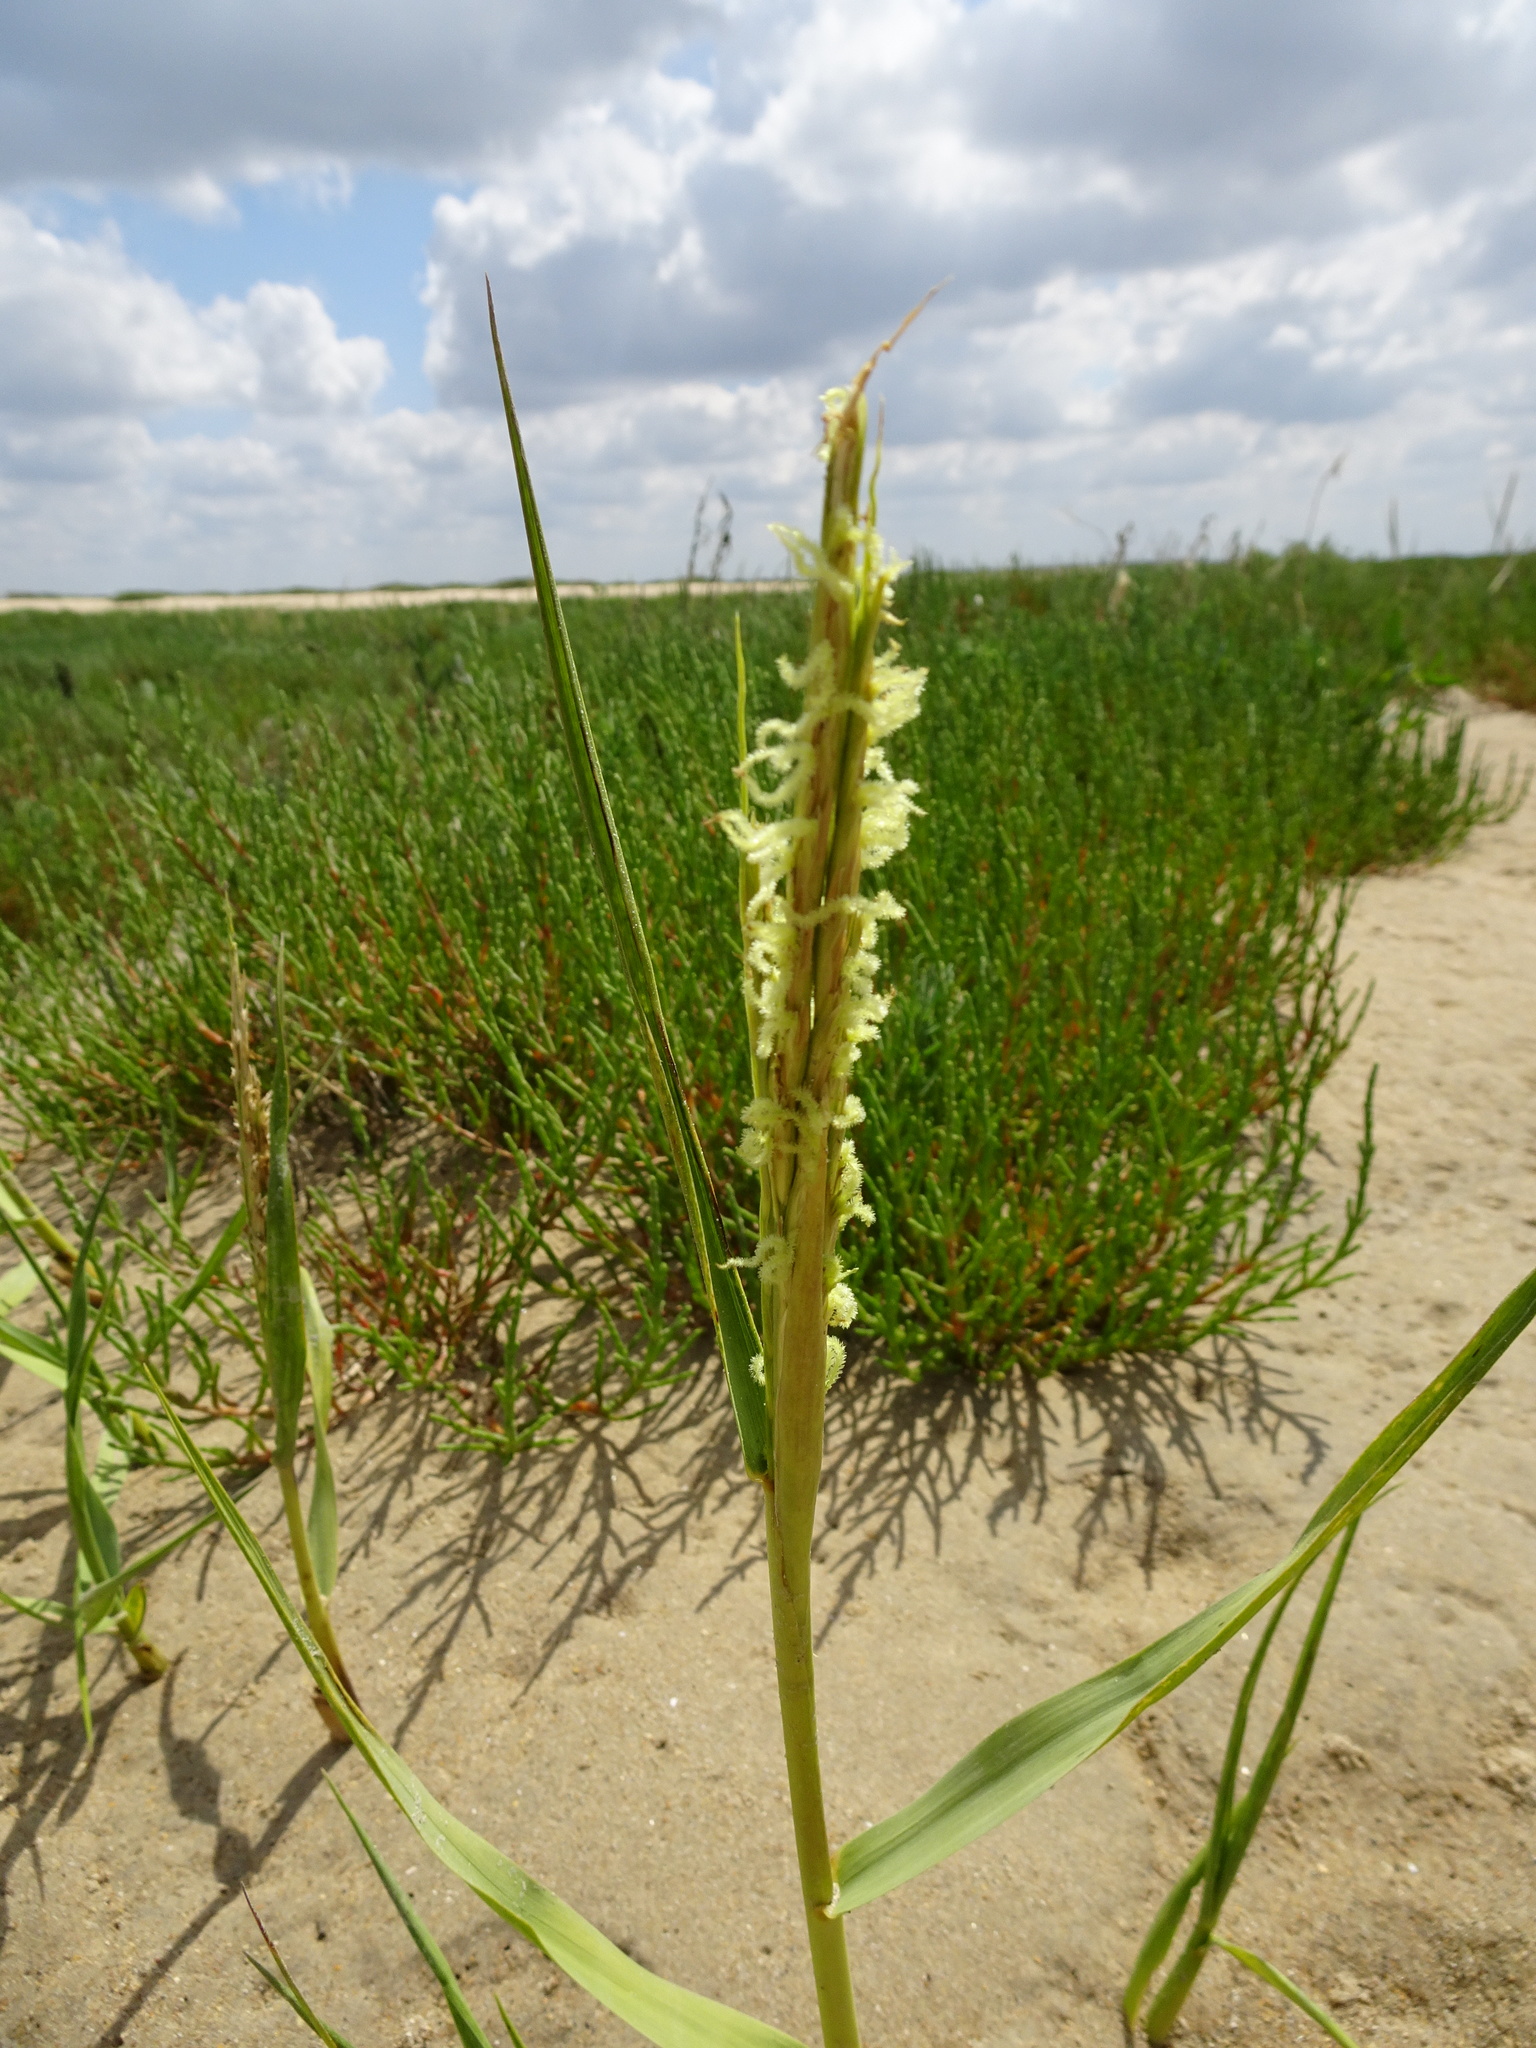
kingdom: Plantae
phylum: Tracheophyta
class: Liliopsida
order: Poales
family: Poaceae
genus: Sporobolus
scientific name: Sporobolus anglicus
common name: English cordgrass
